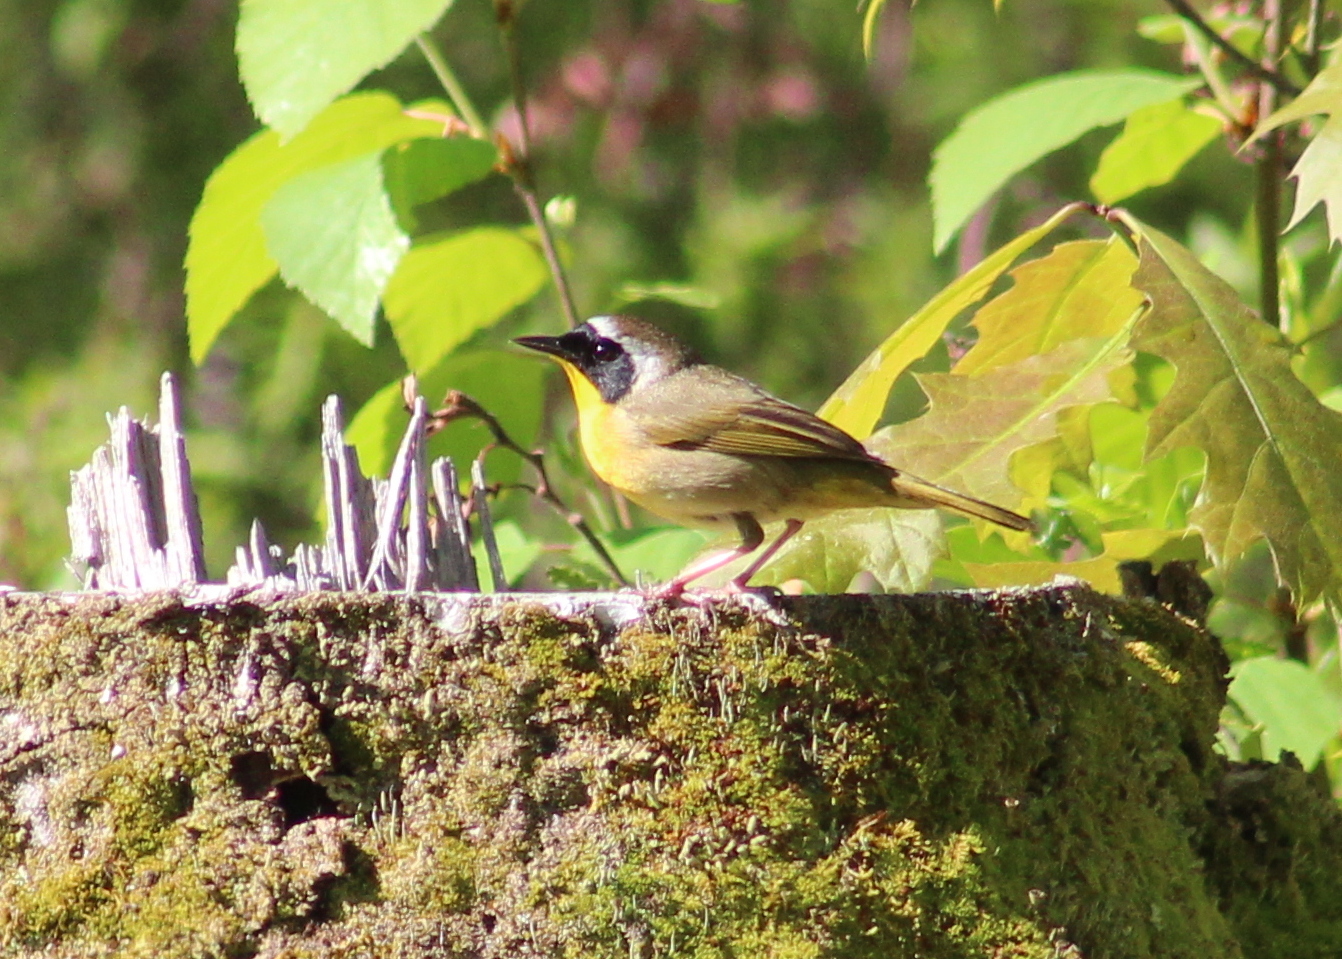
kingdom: Animalia
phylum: Chordata
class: Aves
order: Passeriformes
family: Parulidae
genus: Geothlypis
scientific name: Geothlypis trichas
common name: Common yellowthroat
